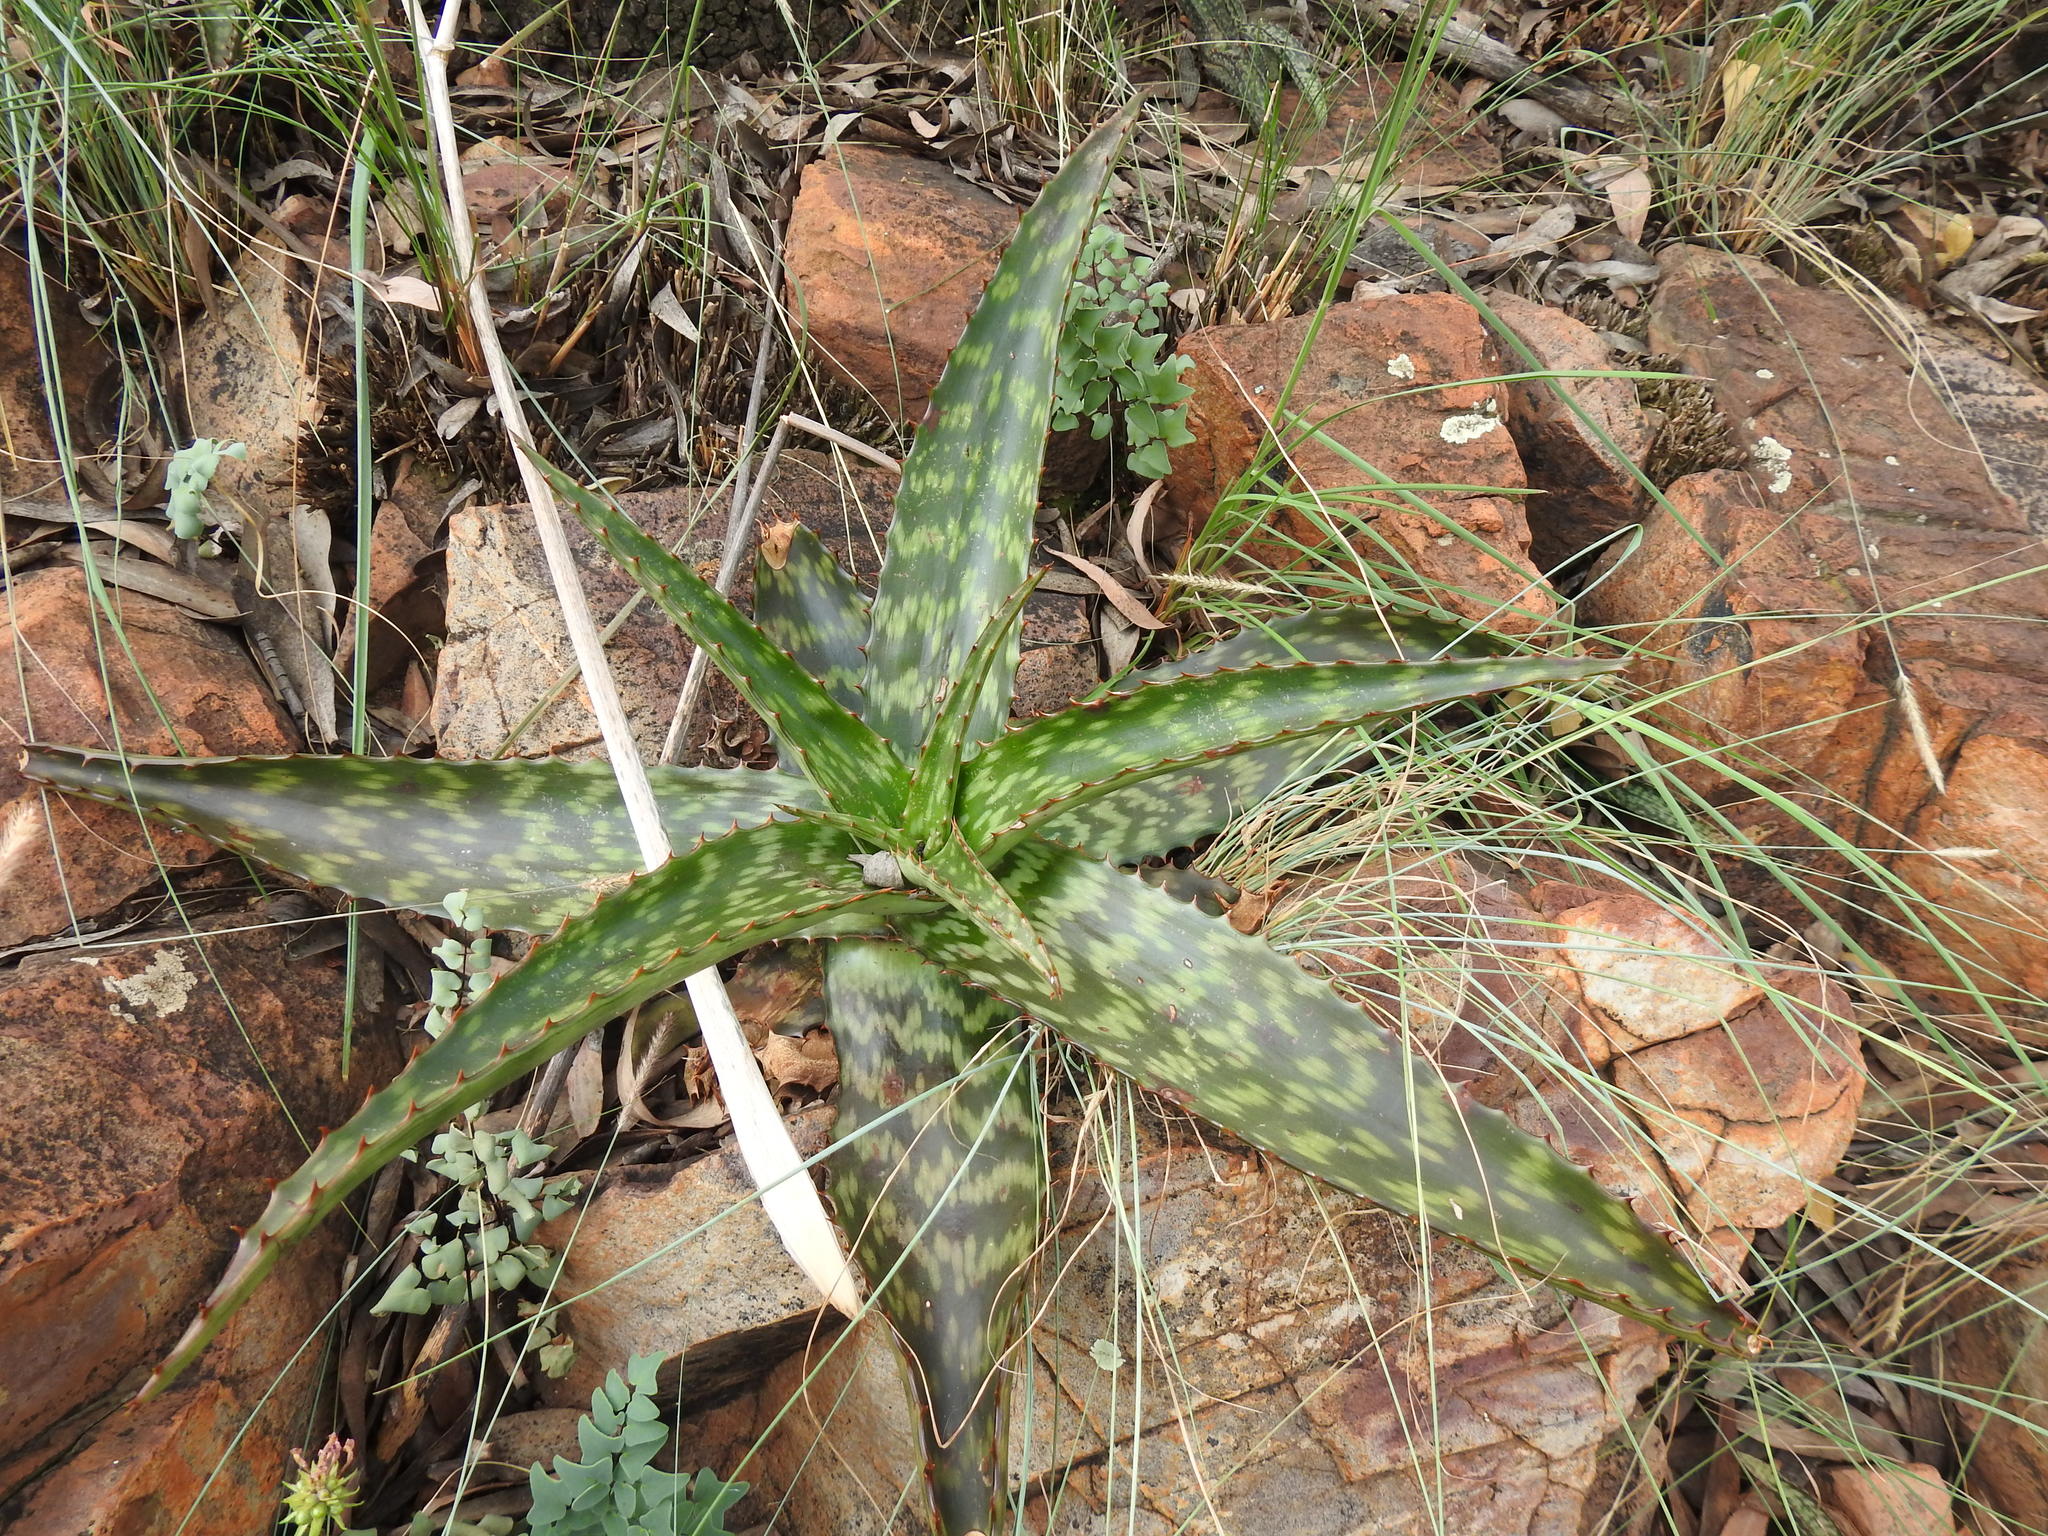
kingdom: Plantae
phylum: Tracheophyta
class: Liliopsida
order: Asparagales
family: Asphodelaceae
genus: Aloe
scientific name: Aloe greatheadii
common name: Greathead's aloe
